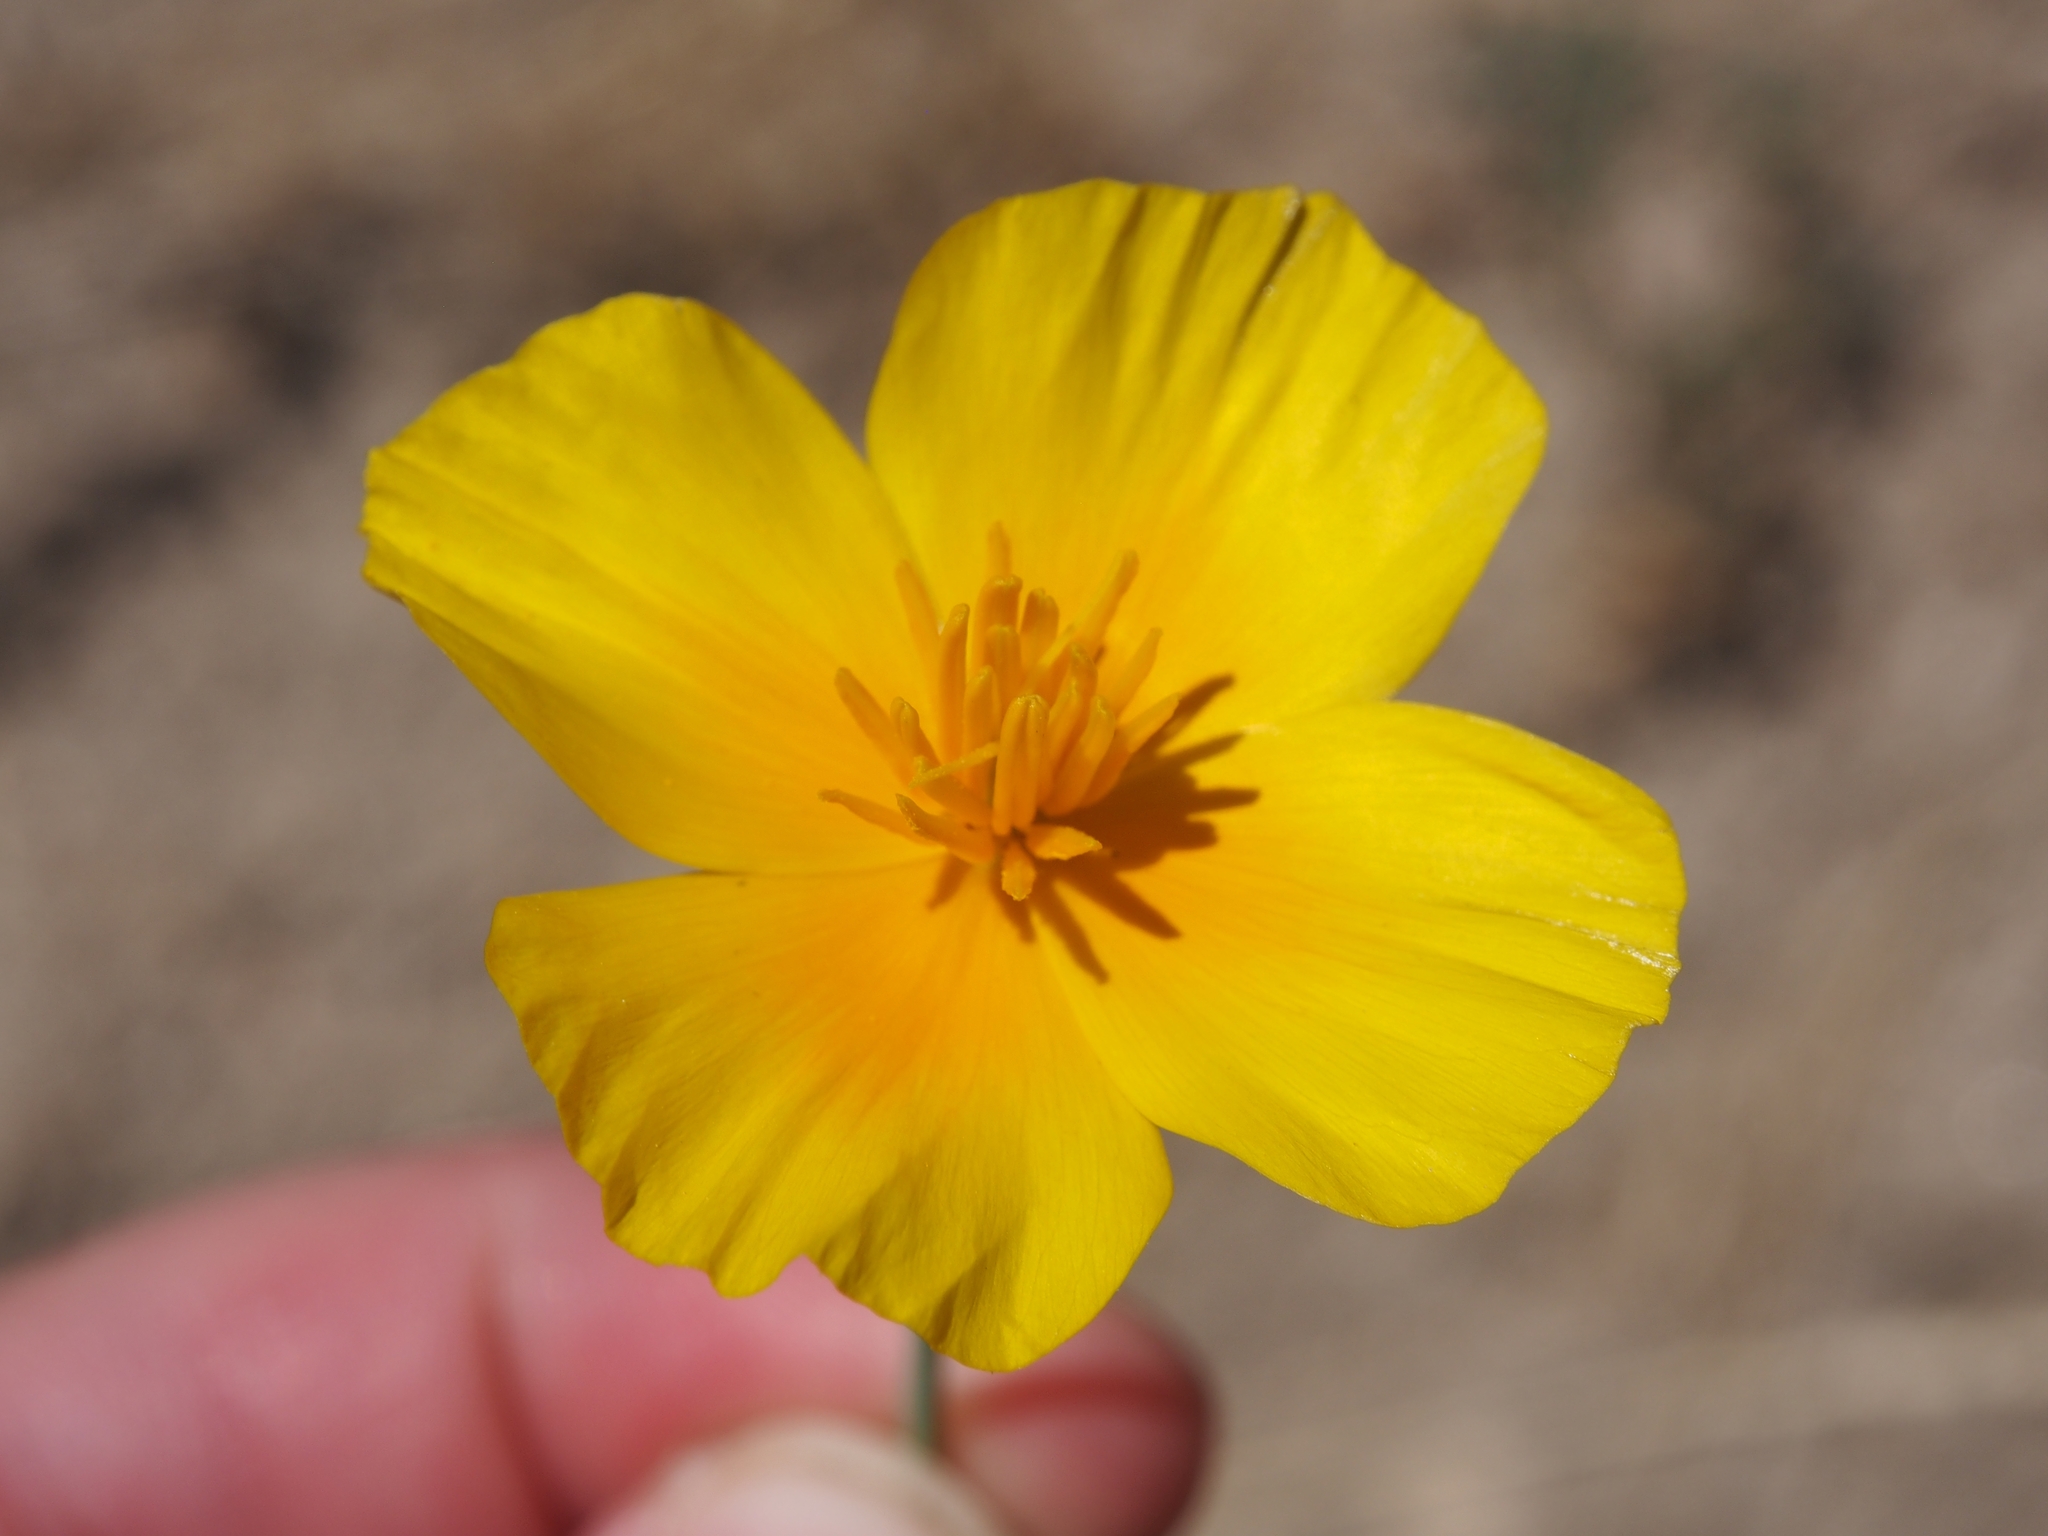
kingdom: Plantae
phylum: Tracheophyta
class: Magnoliopsida
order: Ranunculales
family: Papaveraceae
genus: Eschscholzia
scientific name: Eschscholzia californica
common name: California poppy
